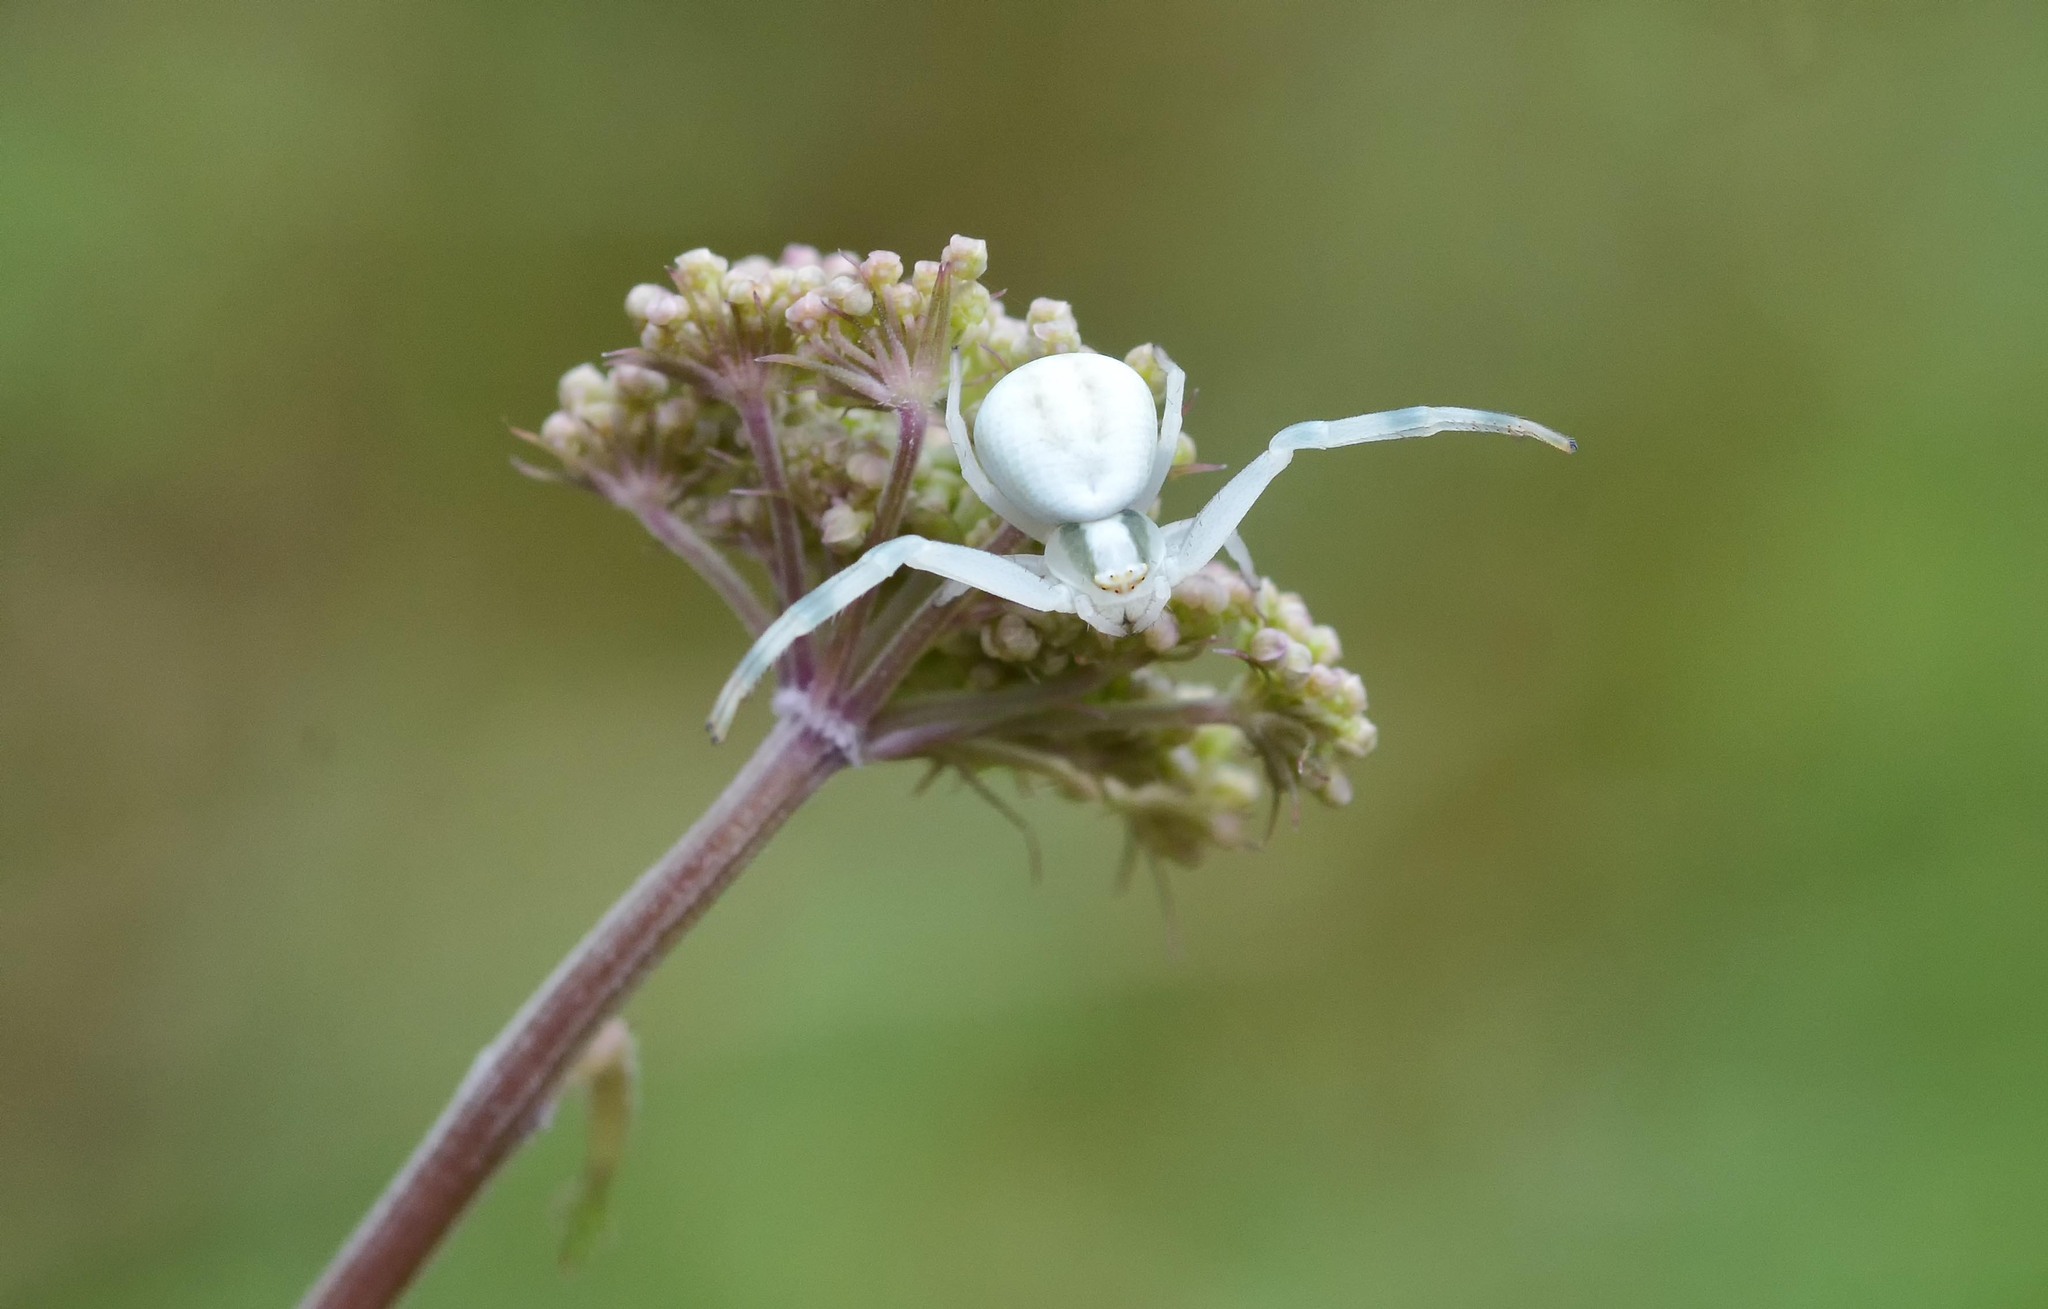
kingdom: Animalia
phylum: Arthropoda
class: Arachnida
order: Araneae
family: Thomisidae
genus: Misumena
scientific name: Misumena vatia
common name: Goldenrod crab spider
